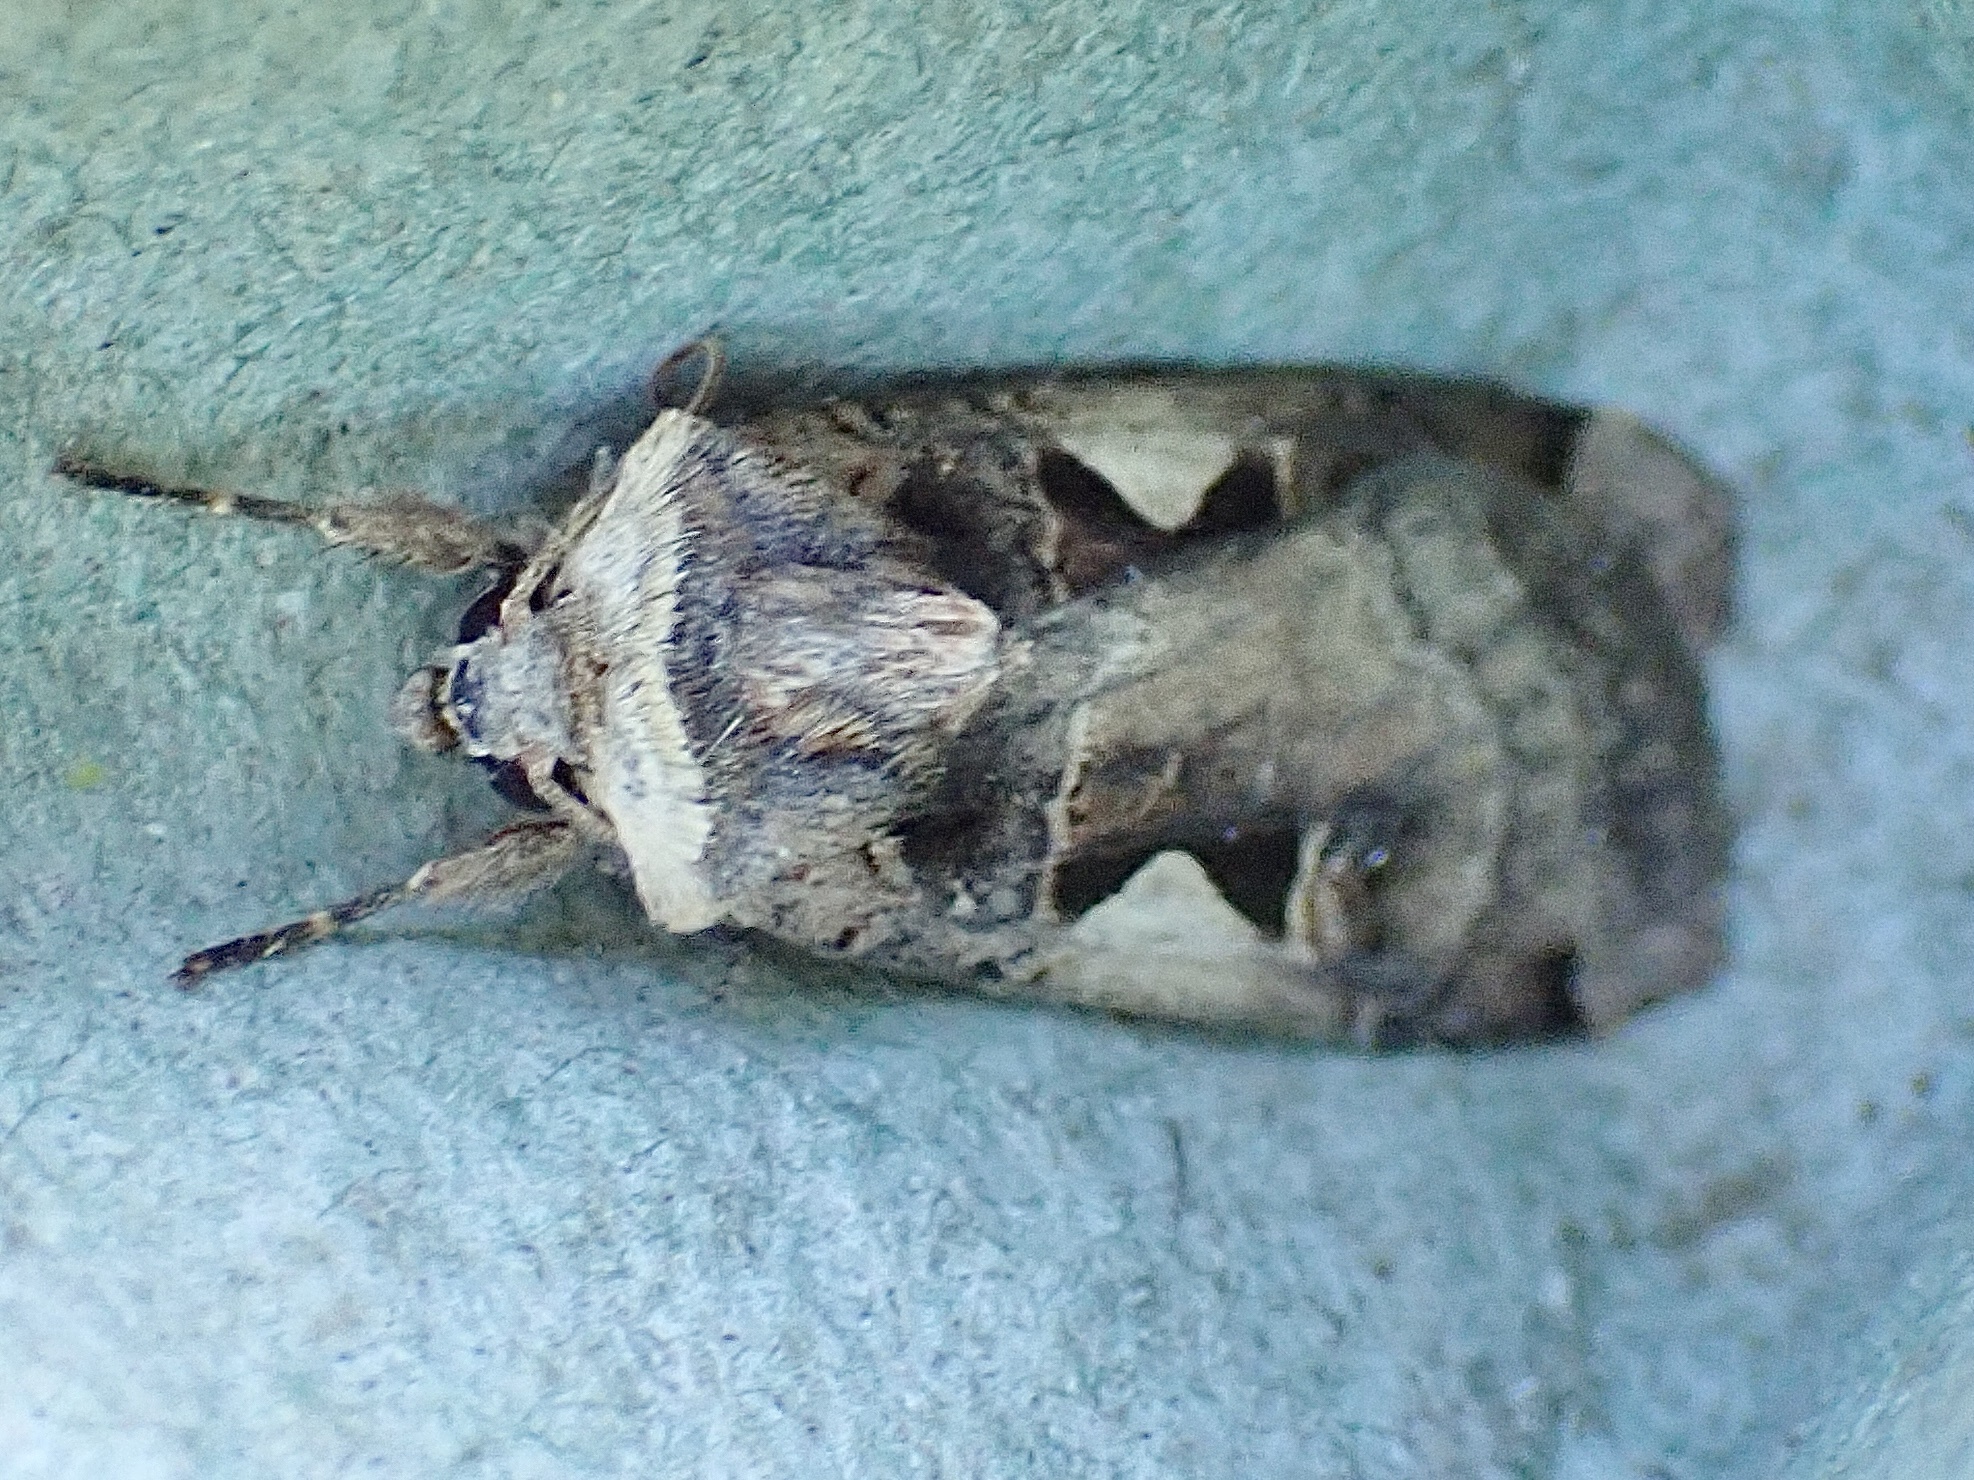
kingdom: Animalia
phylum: Arthropoda
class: Insecta
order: Lepidoptera
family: Noctuidae
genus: Xestia
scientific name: Xestia c-nigrum
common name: Setaceous hebrew character
